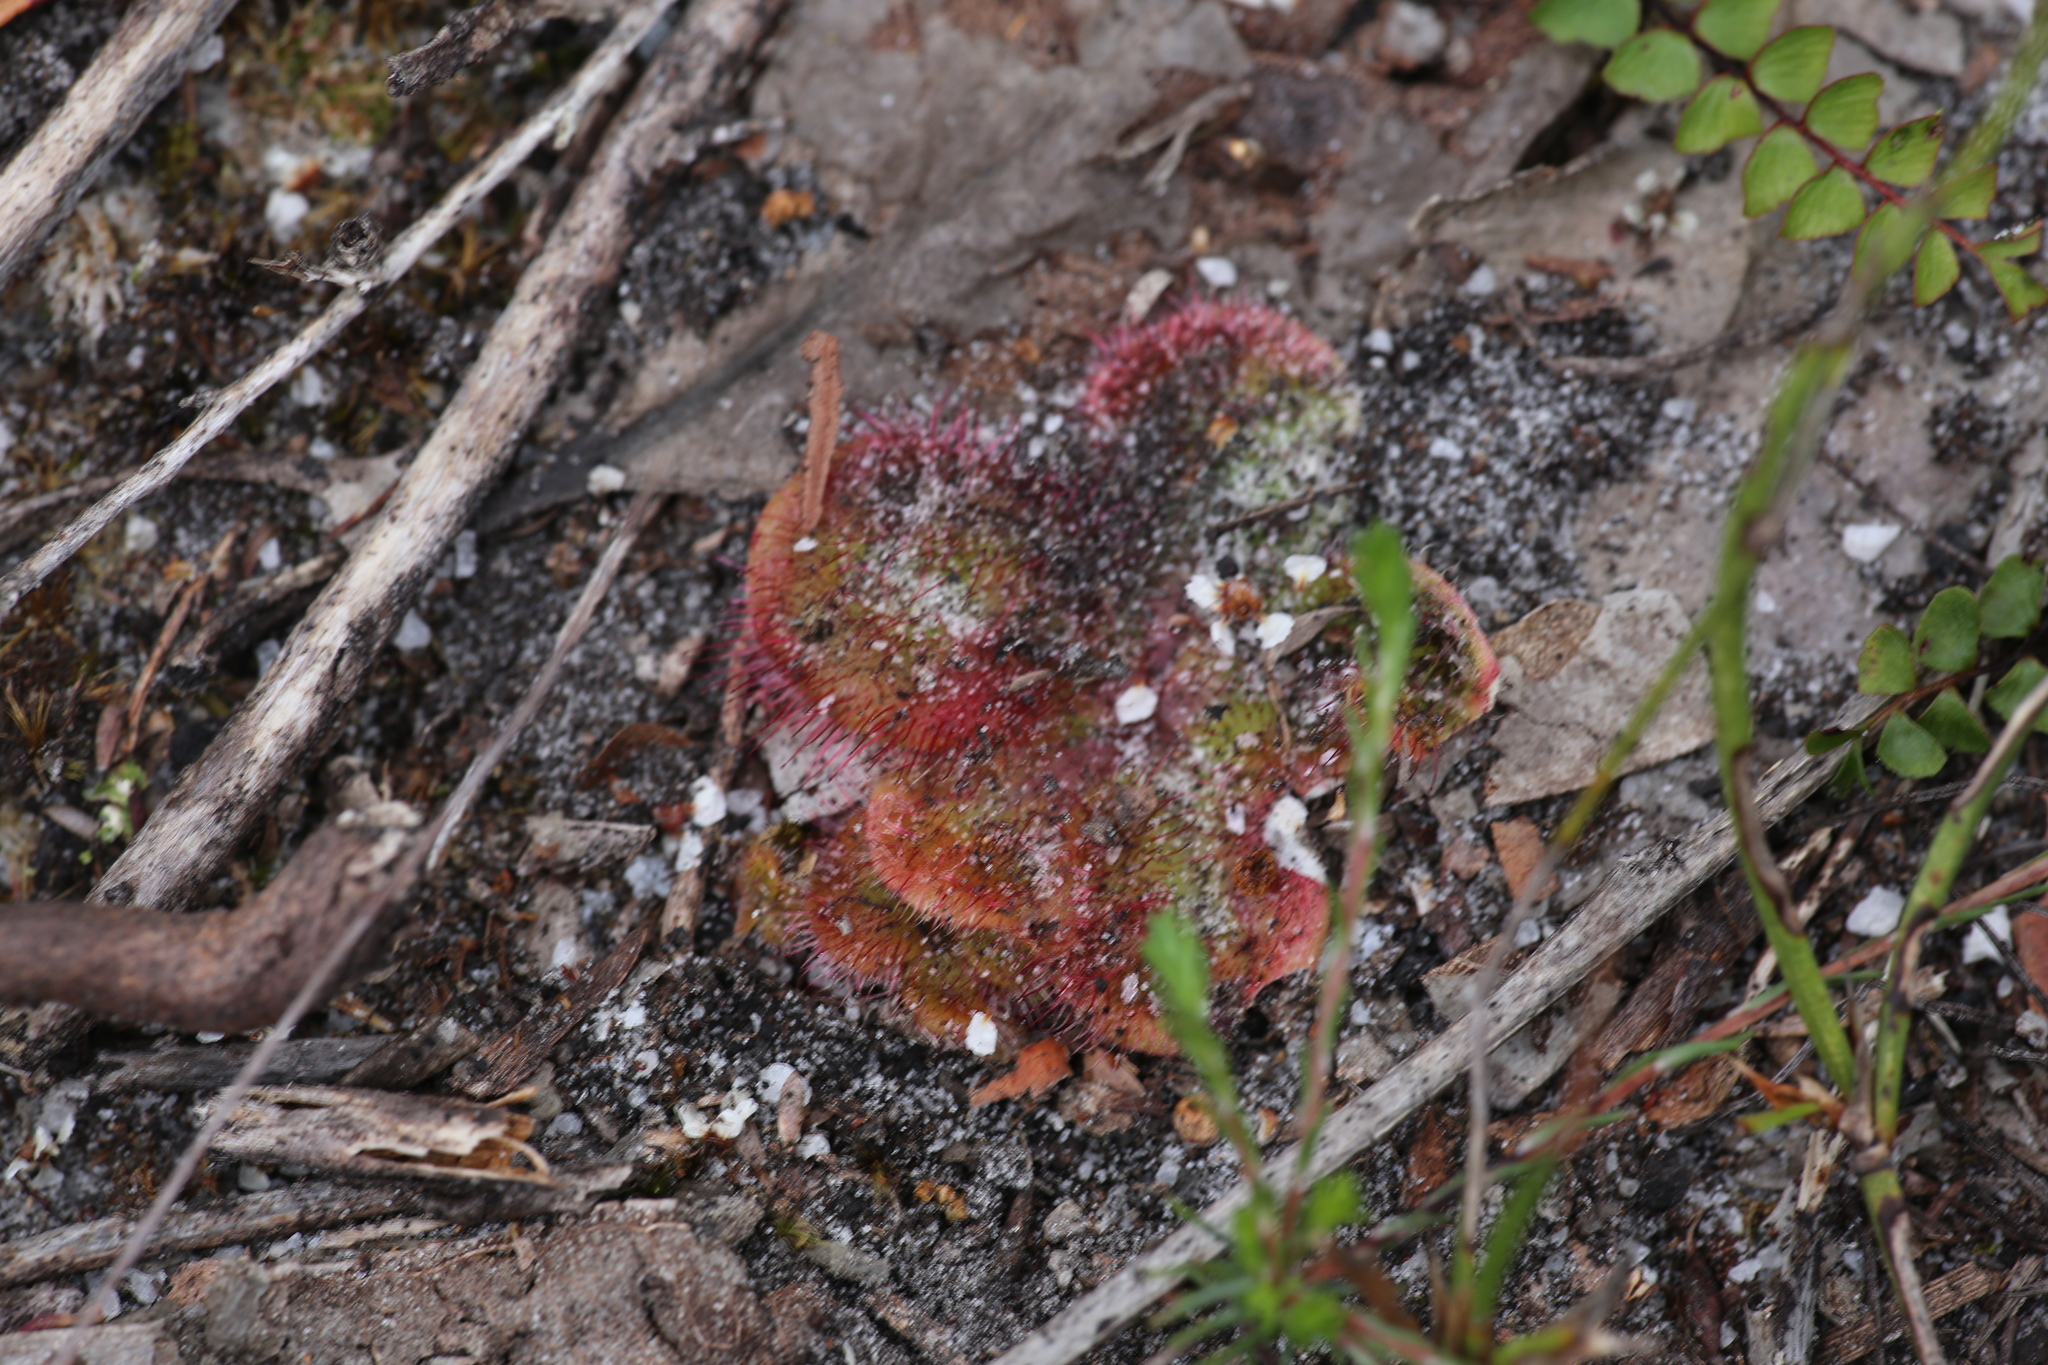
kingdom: Plantae
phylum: Tracheophyta
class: Magnoliopsida
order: Caryophyllales
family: Droseraceae
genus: Drosera
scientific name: Drosera erythrorhiza
